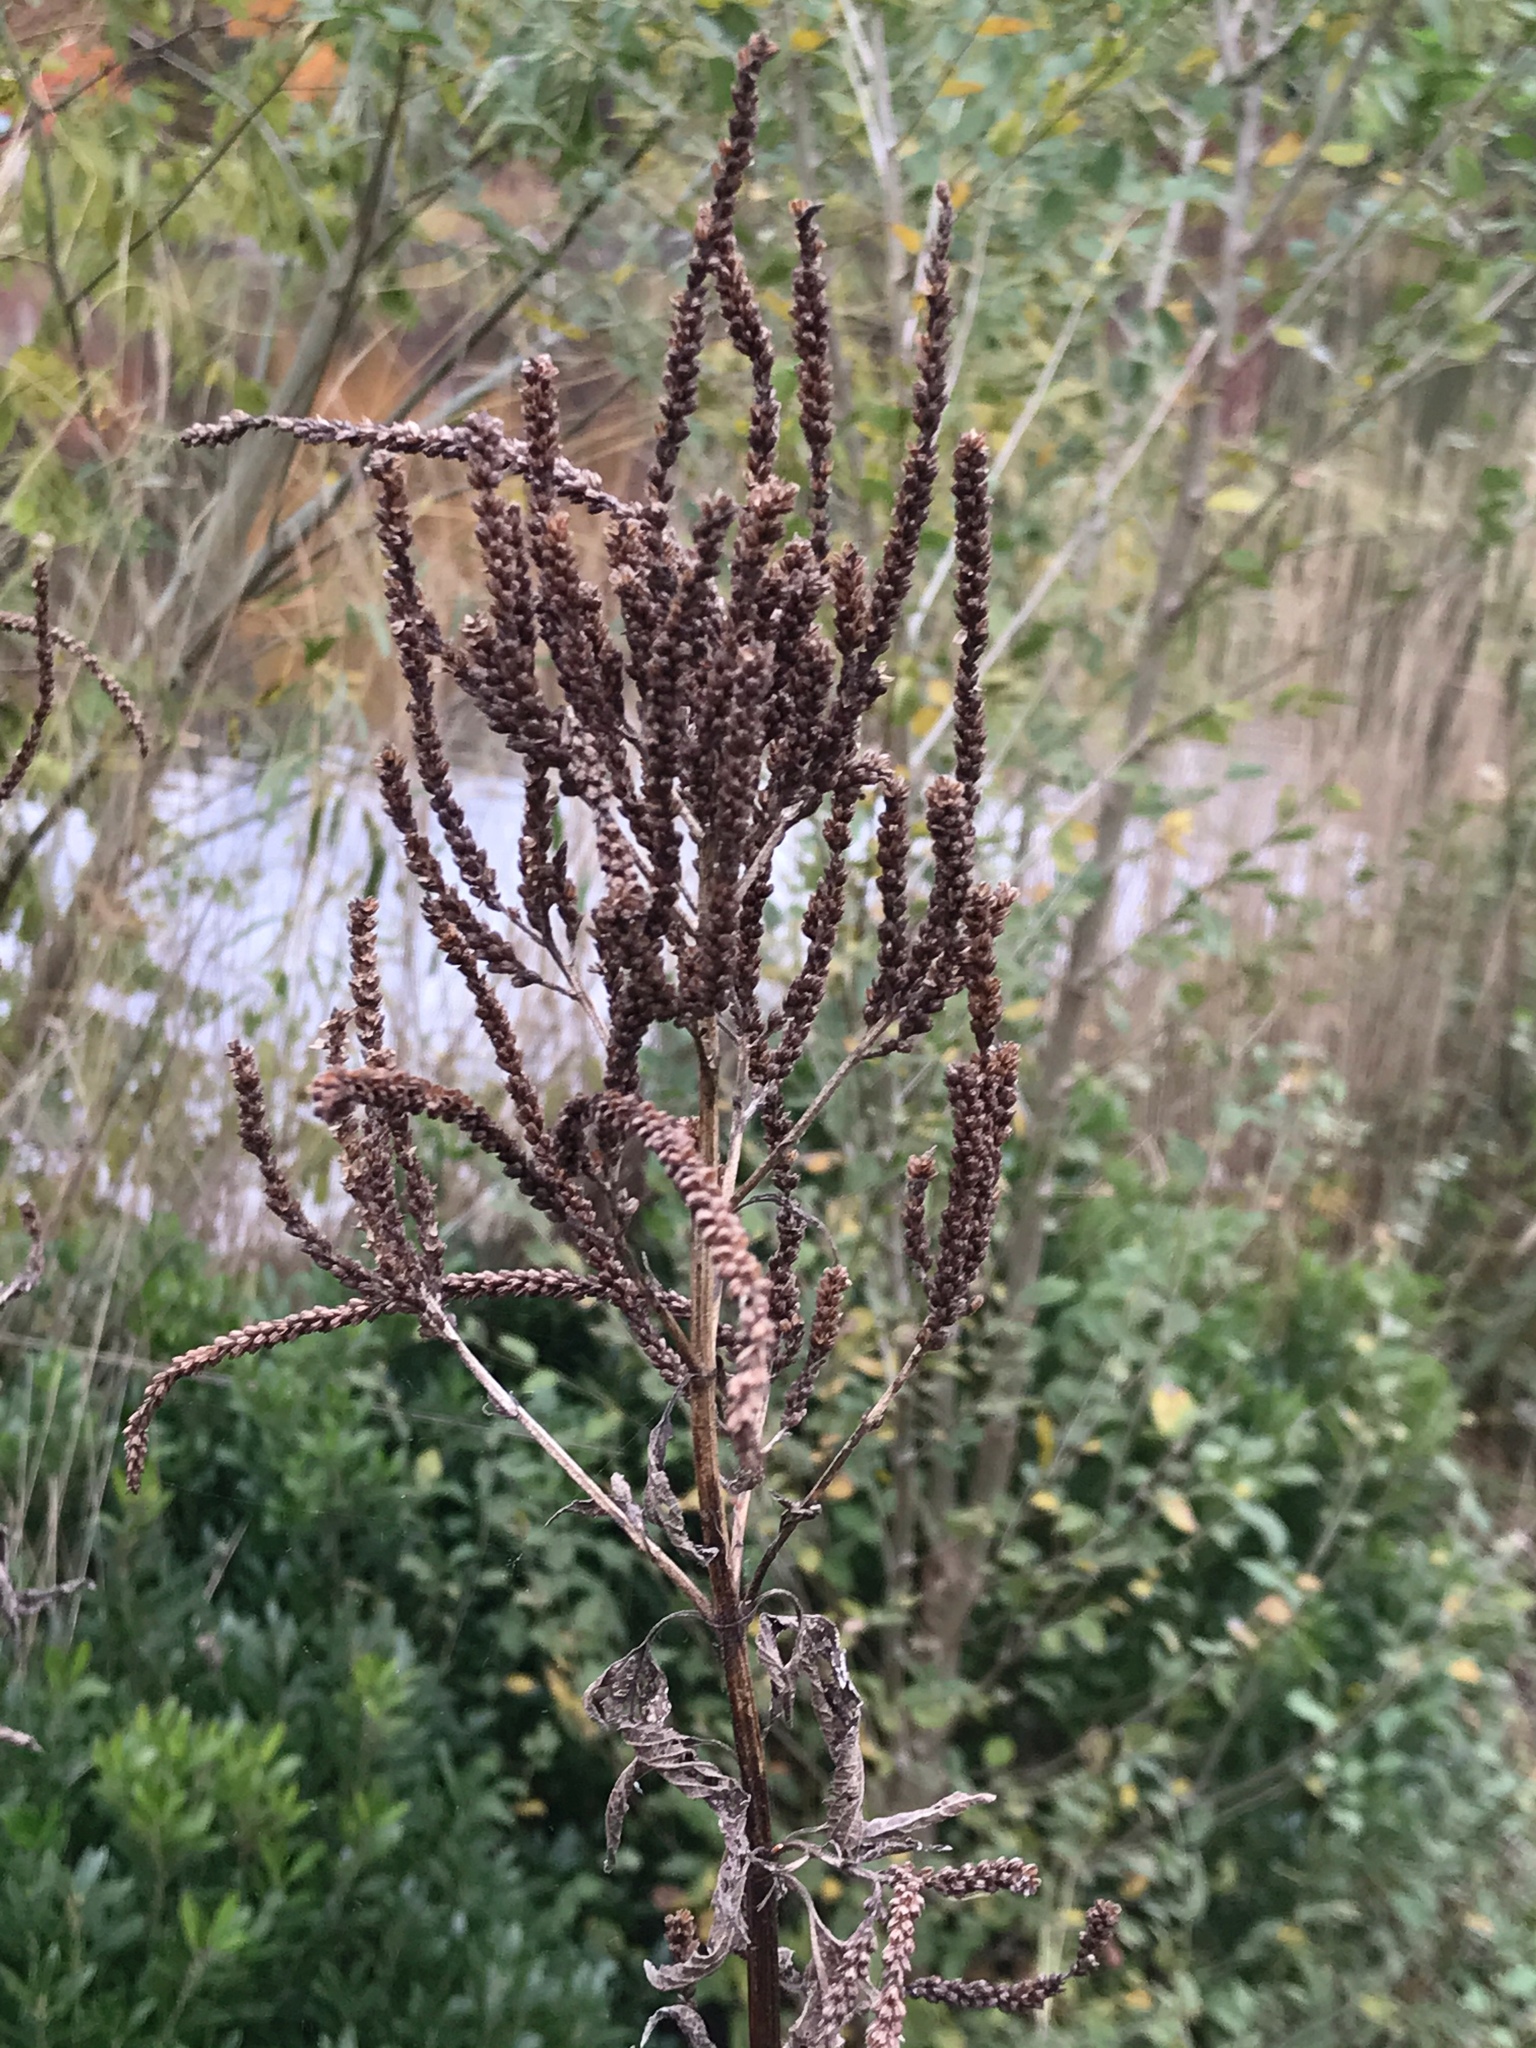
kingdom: Plantae
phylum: Tracheophyta
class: Magnoliopsida
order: Lamiales
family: Verbenaceae
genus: Verbena
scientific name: Verbena hastata
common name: American blue vervain
